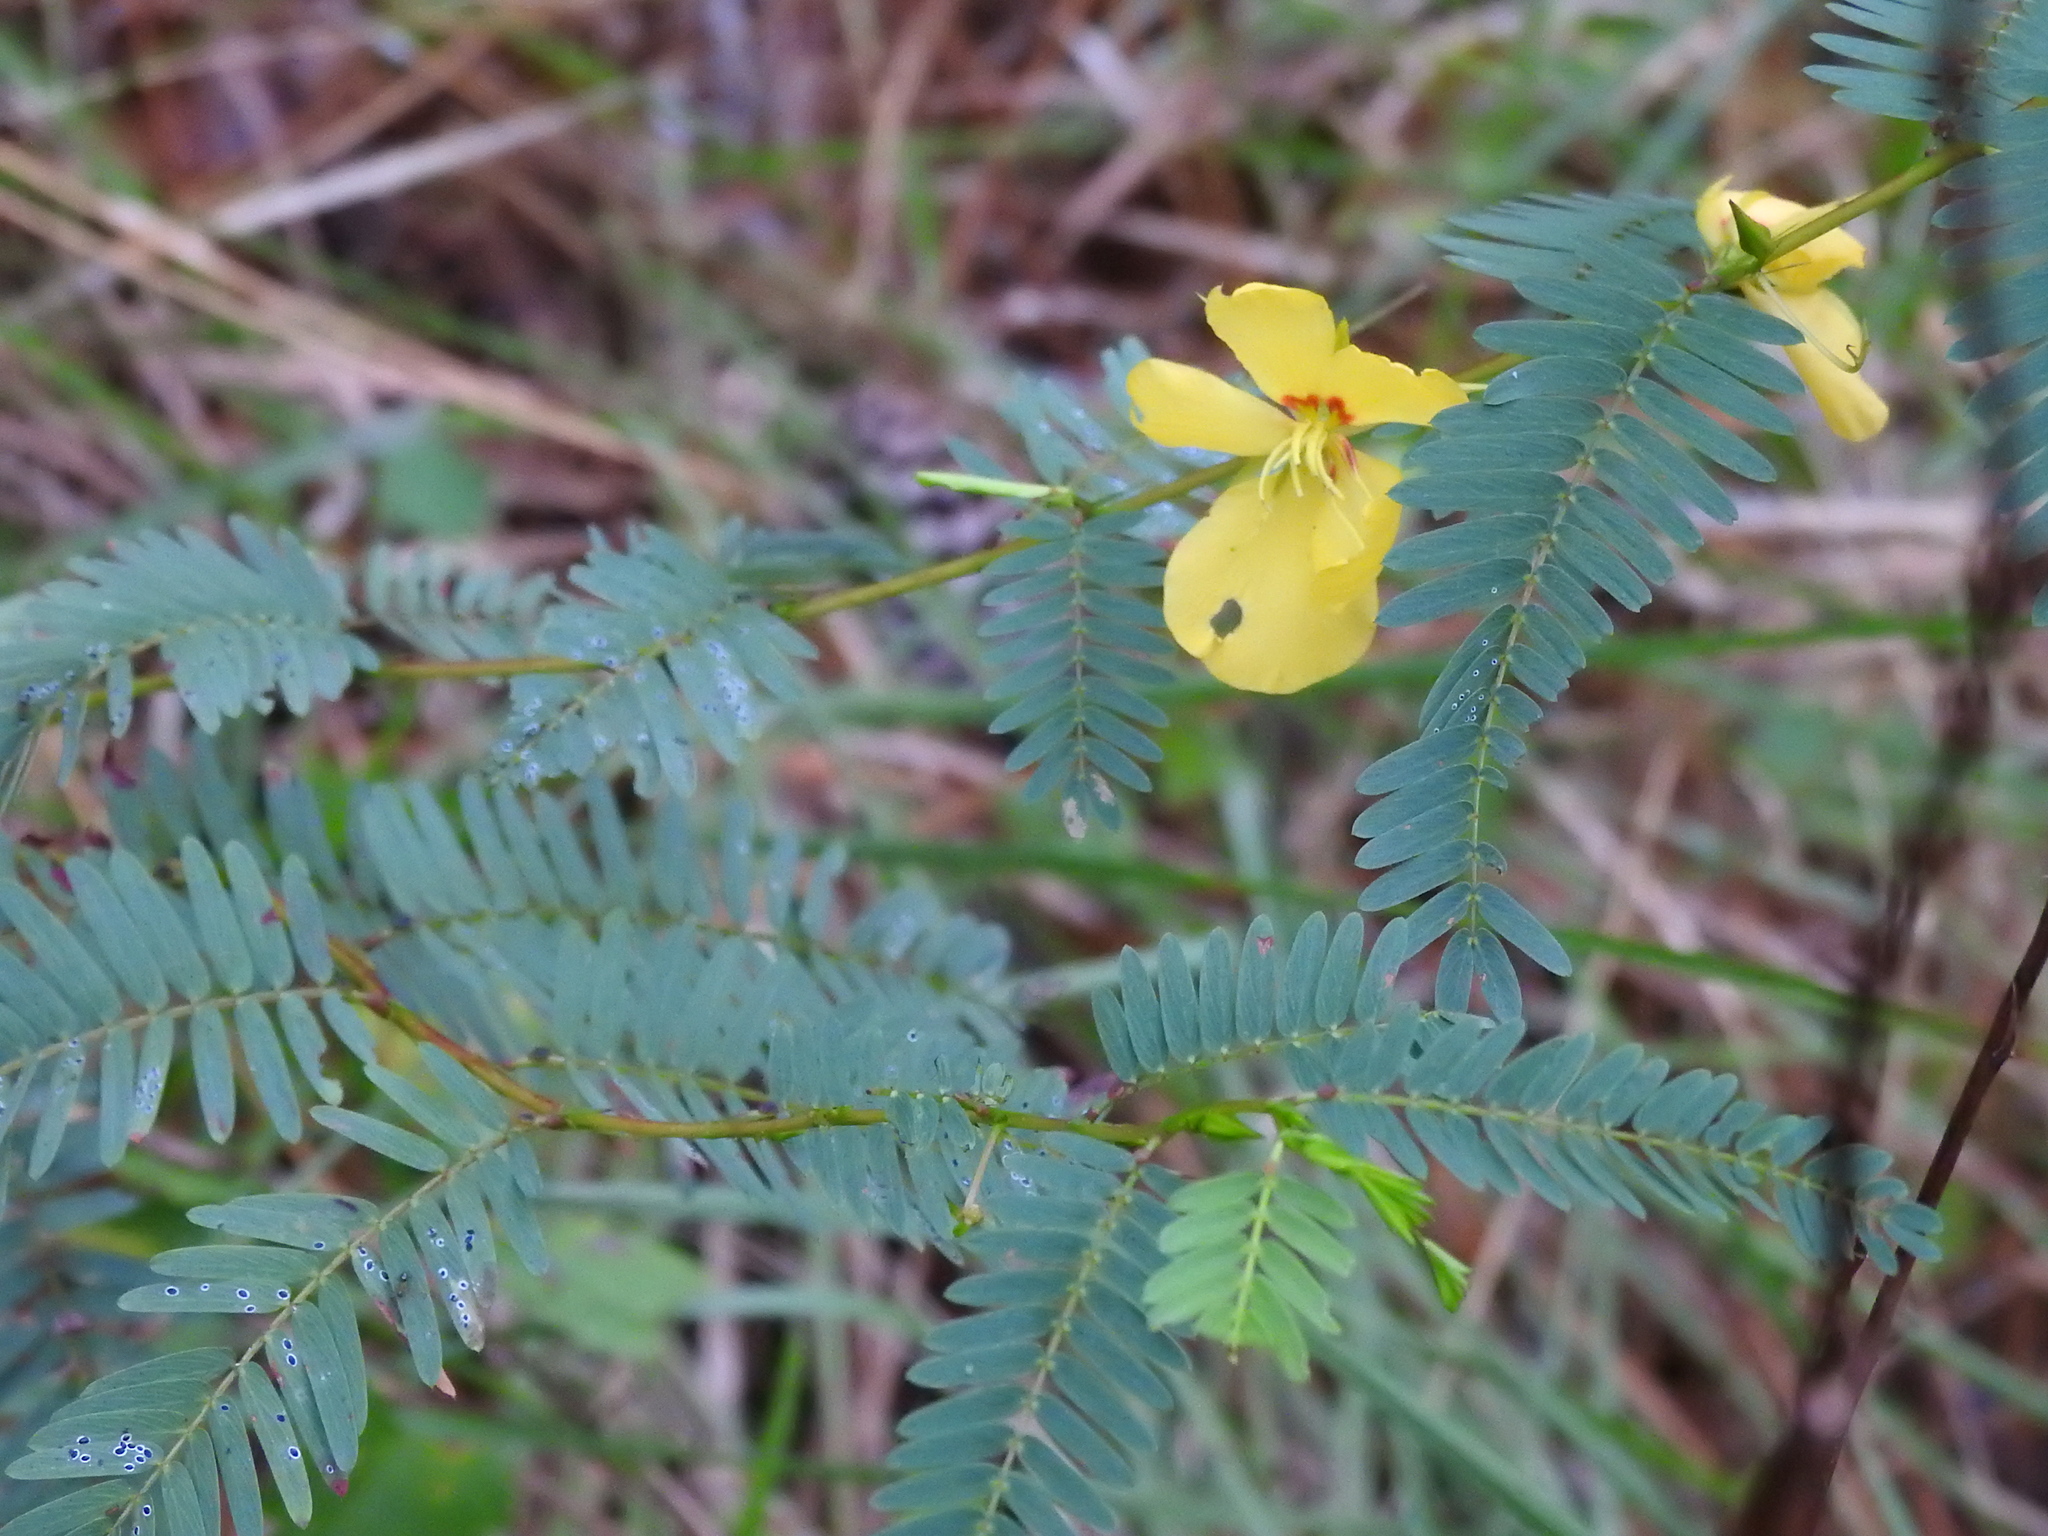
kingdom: Plantae
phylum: Tracheophyta
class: Magnoliopsida
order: Fabales
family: Fabaceae
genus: Chamaecrista
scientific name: Chamaecrista fasciculata
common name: Golden cassia
